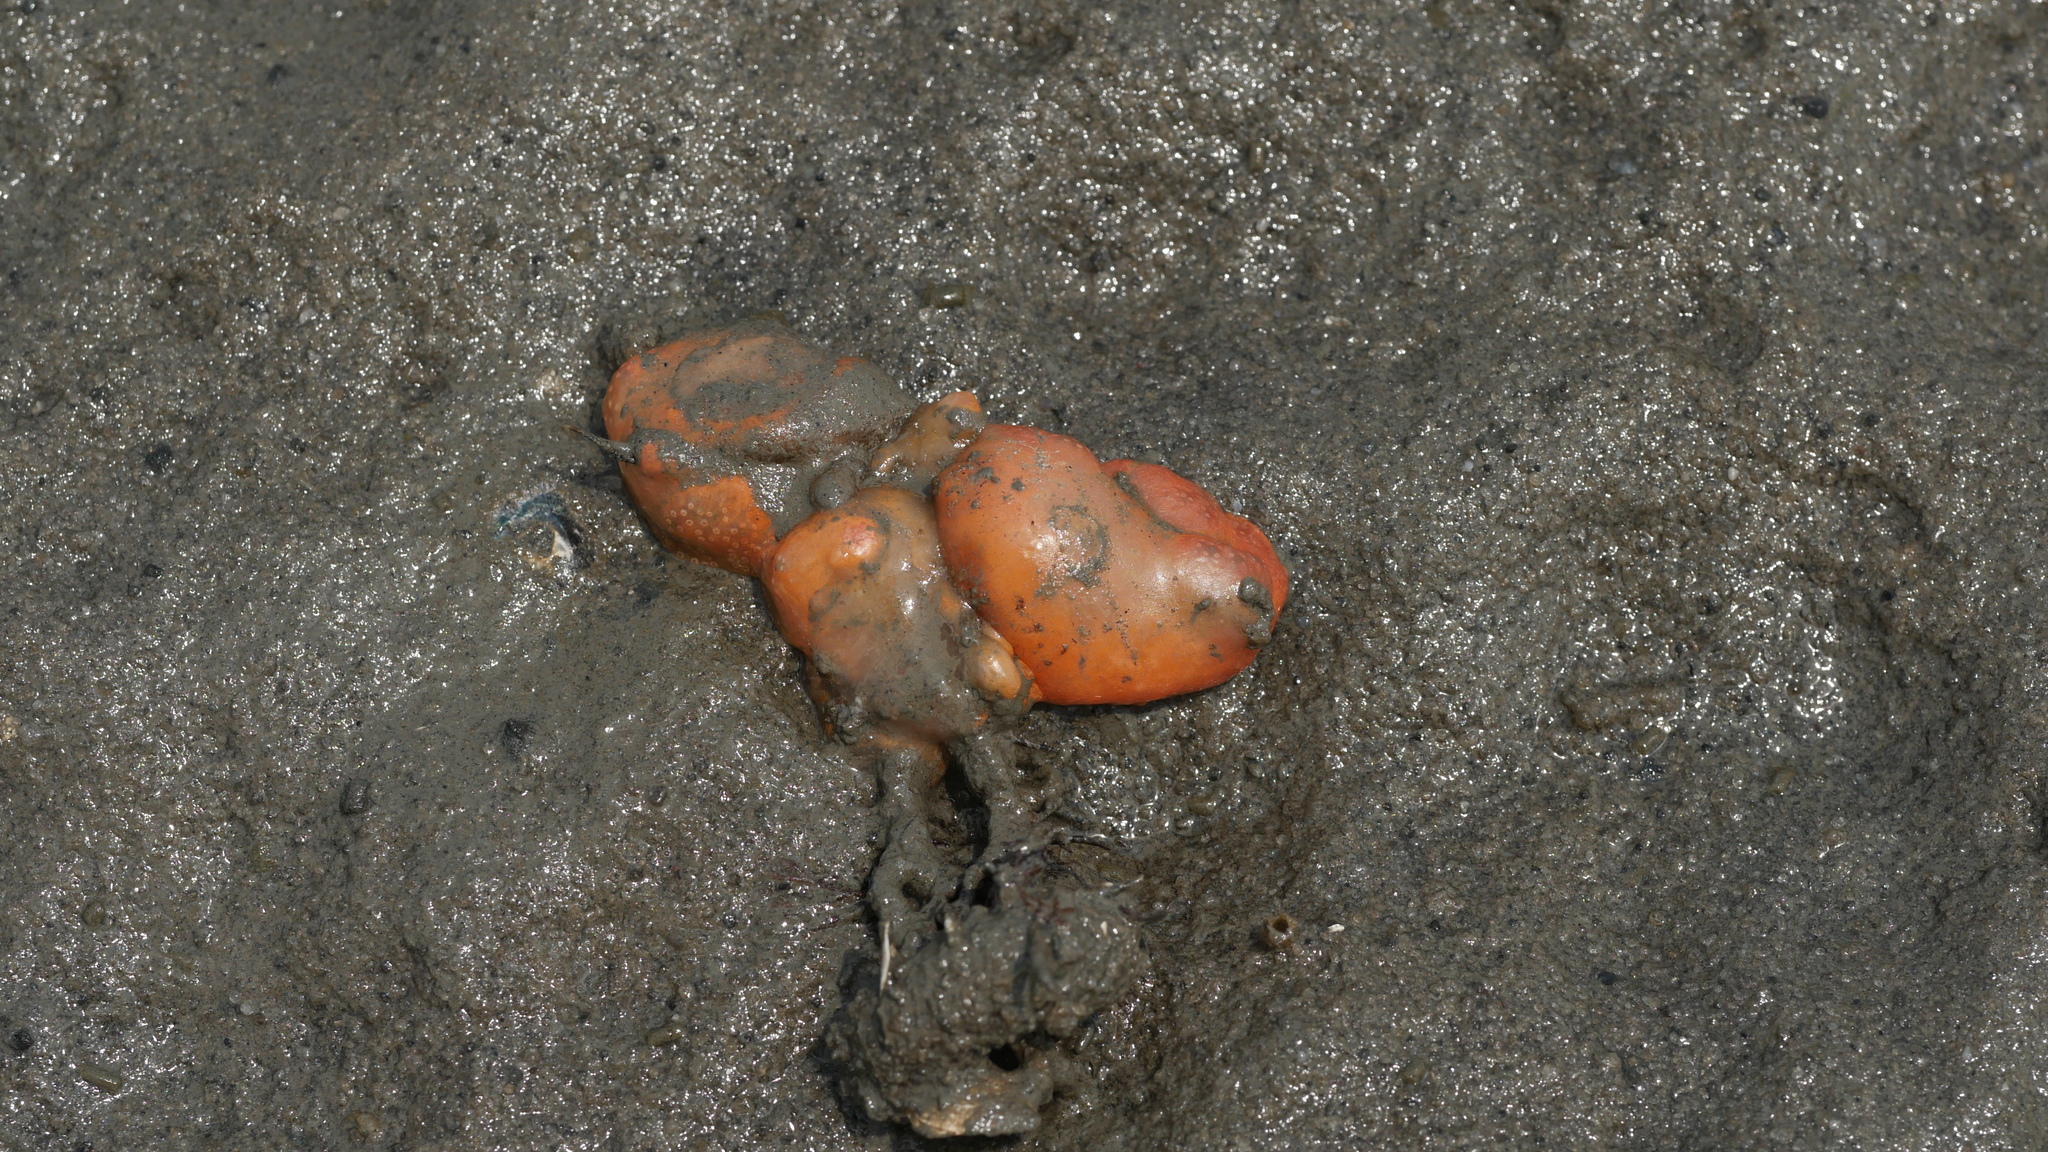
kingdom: Animalia
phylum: Chordata
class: Ascidiacea
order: Aplousobranchia
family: Polyclinidae
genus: Aplidium
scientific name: Aplidium stellatum
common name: Atlantic sea pork
